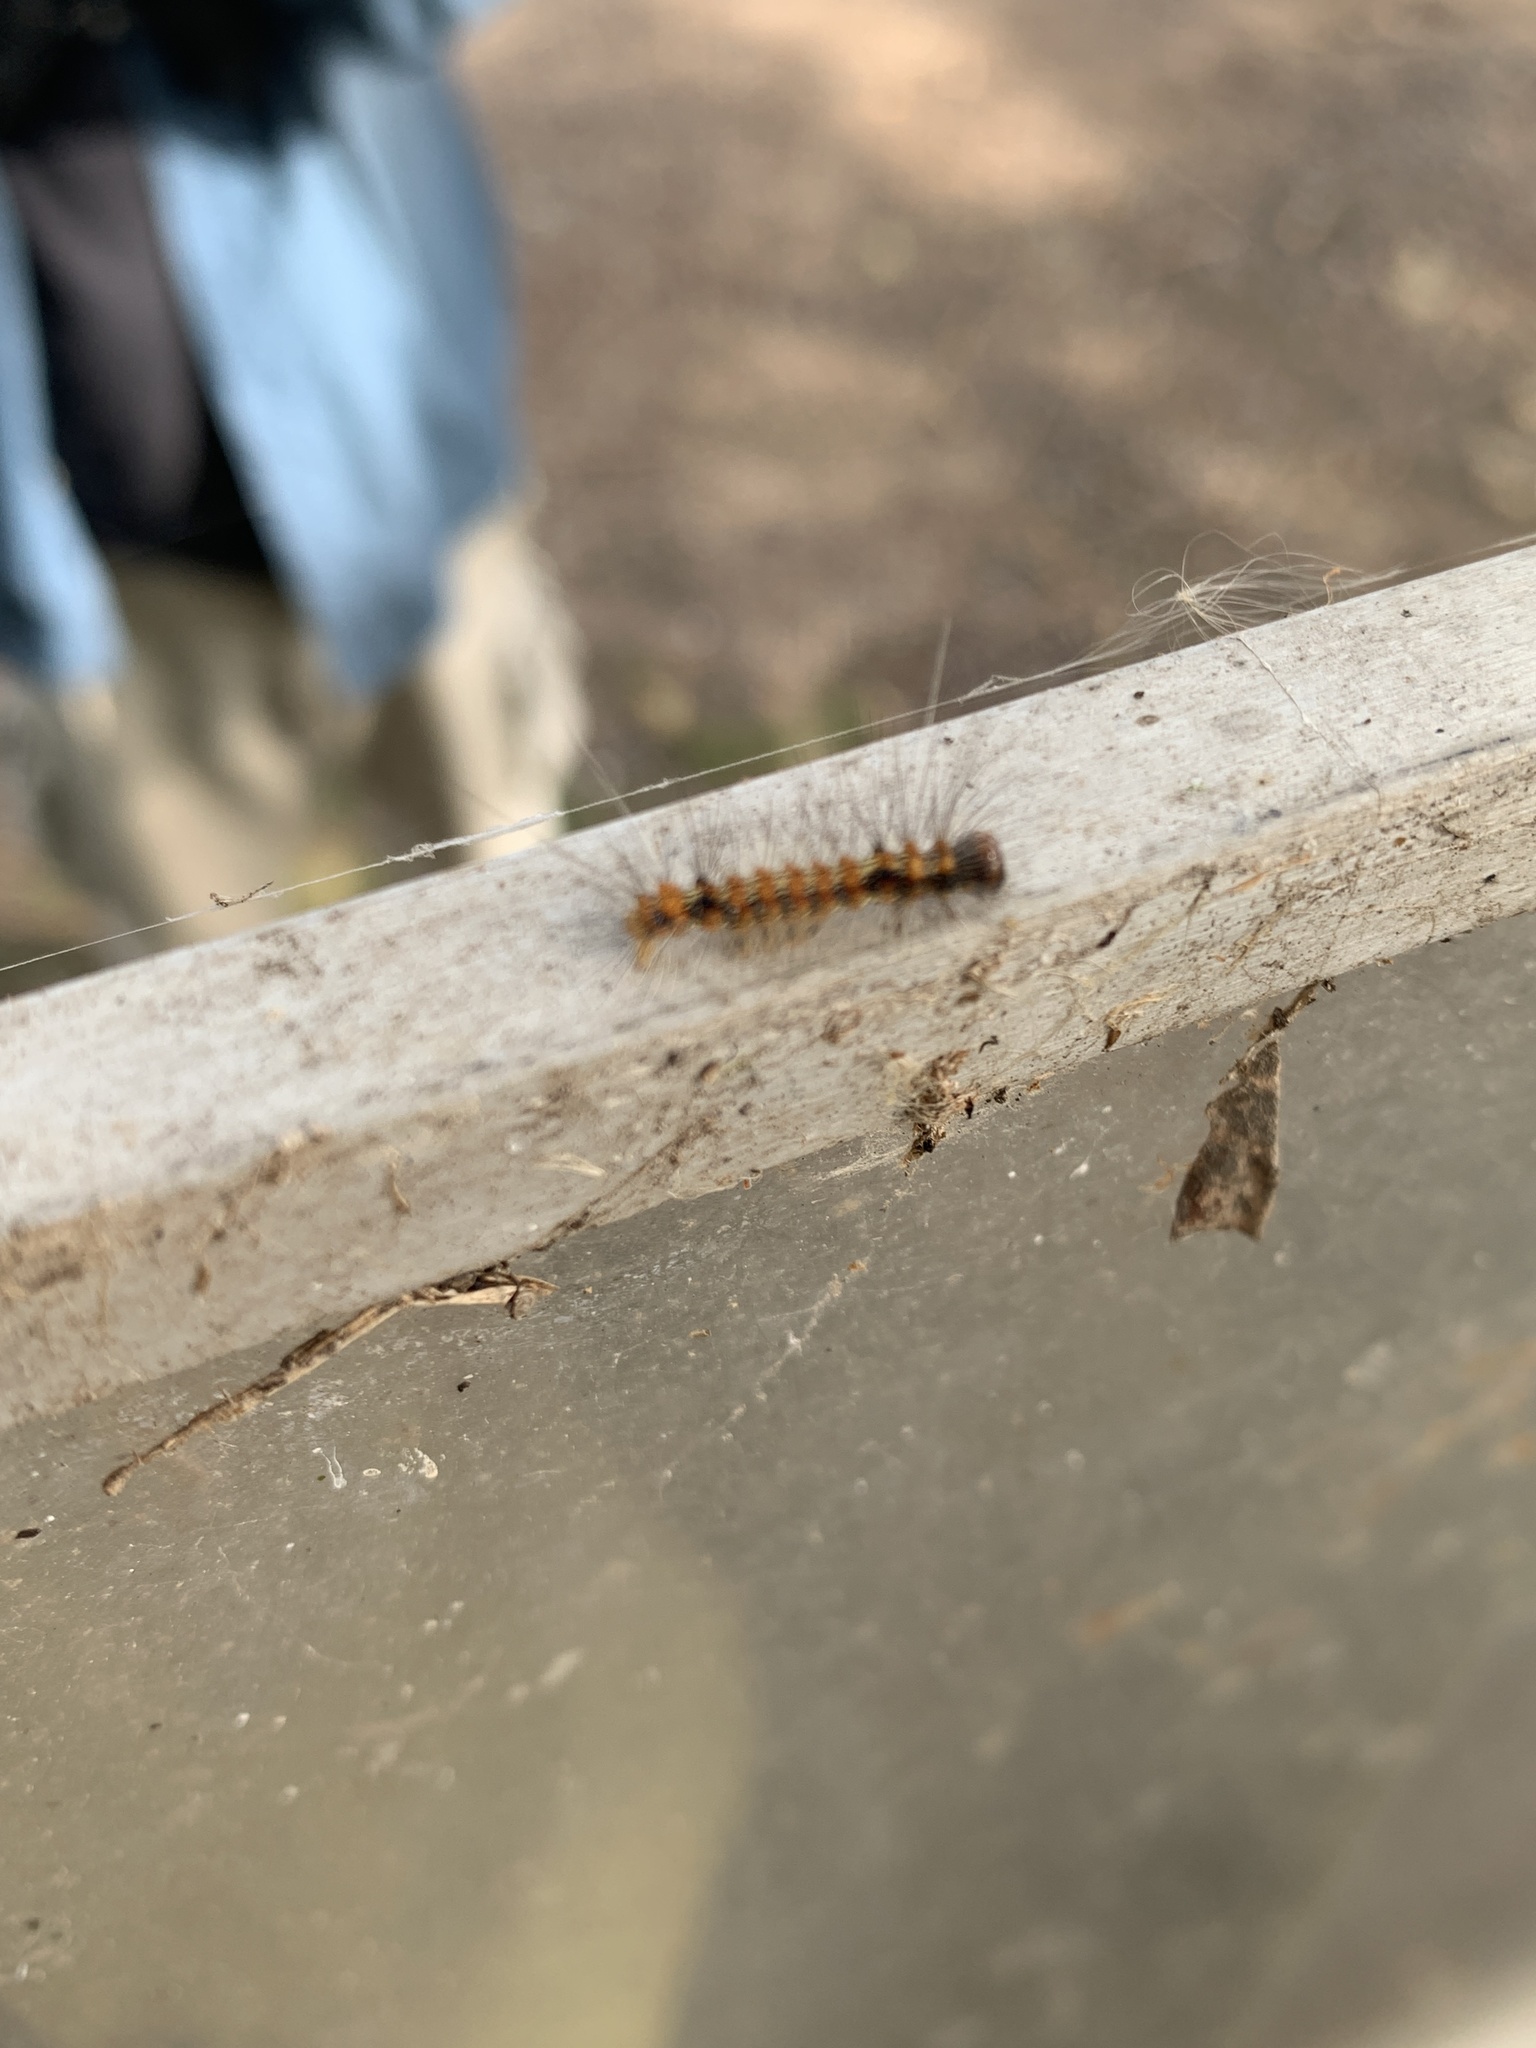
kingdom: Animalia
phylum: Arthropoda
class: Insecta
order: Lepidoptera
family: Erebidae
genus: Dysschema
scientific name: Dysschema sacrifica
